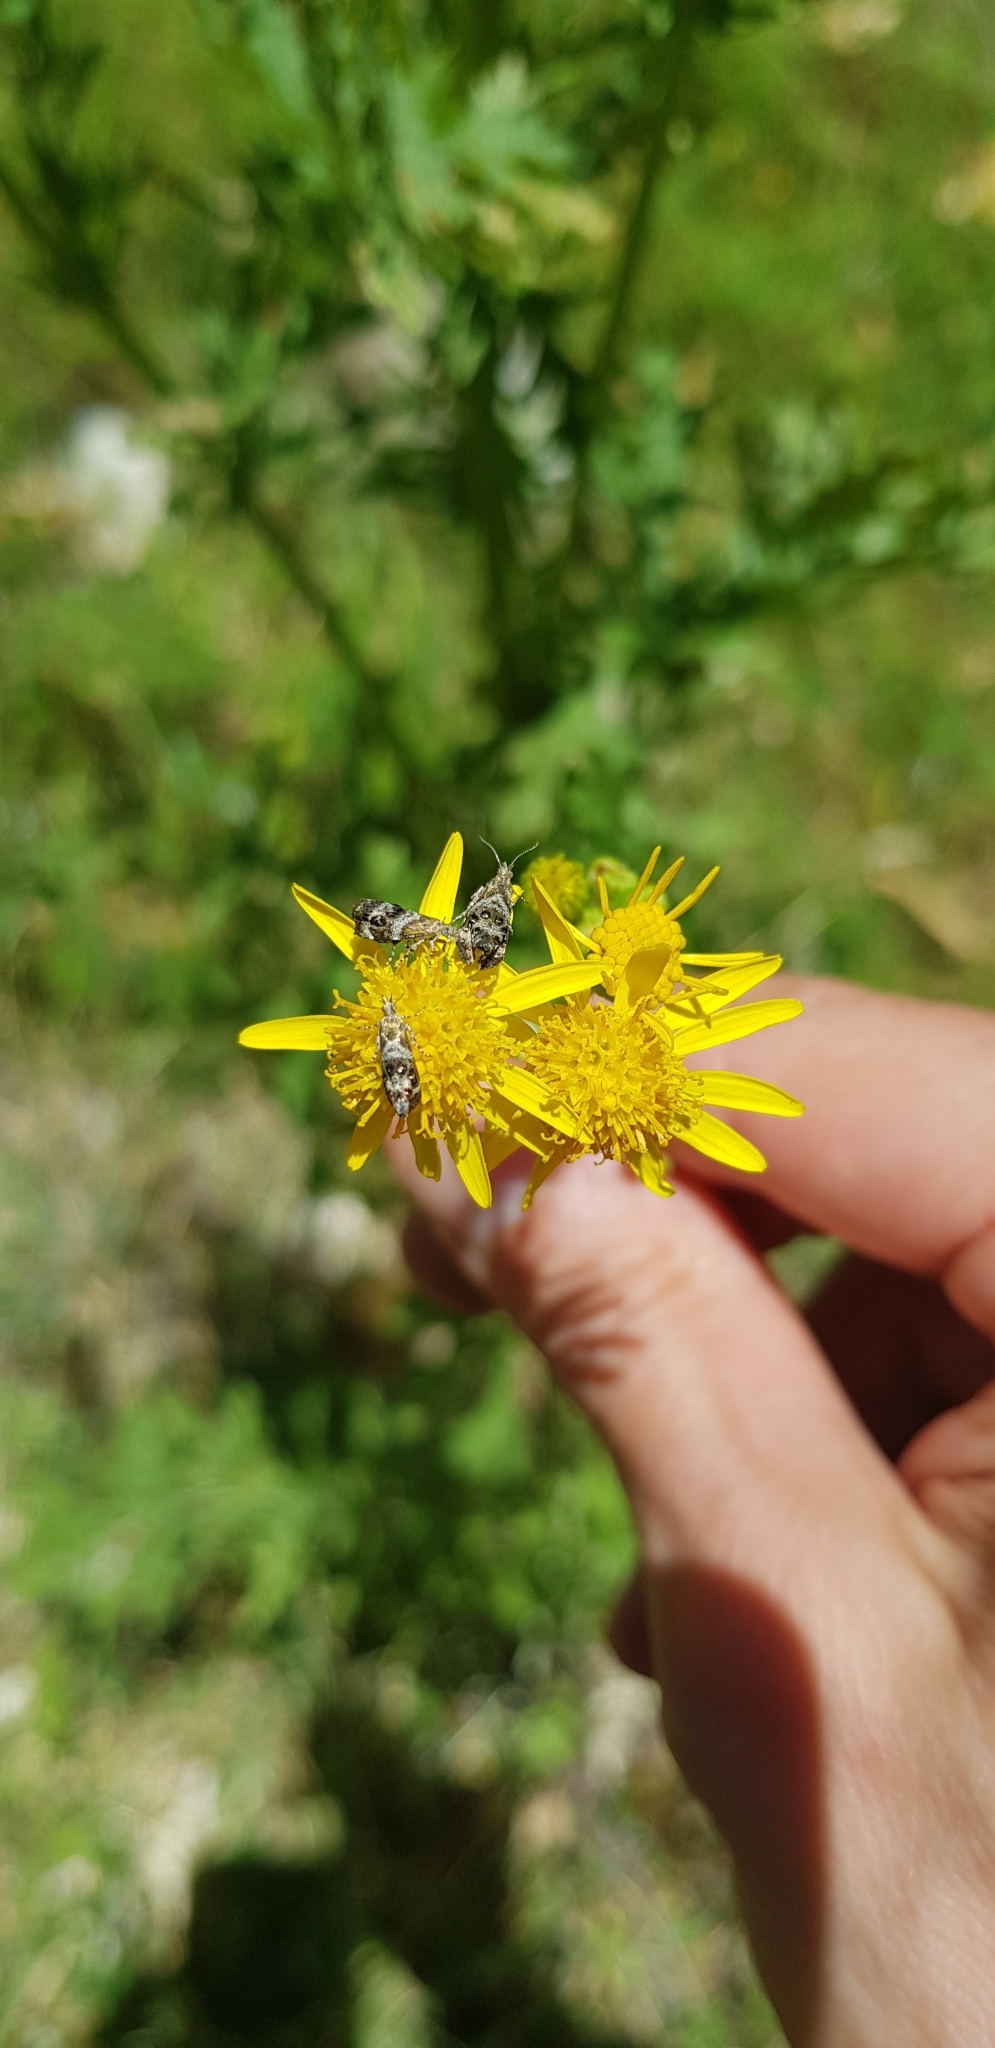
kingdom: Animalia
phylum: Arthropoda
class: Insecta
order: Lepidoptera
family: Choreutidae
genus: Tebenna
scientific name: Tebenna micalis
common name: Vagrant twitcher
